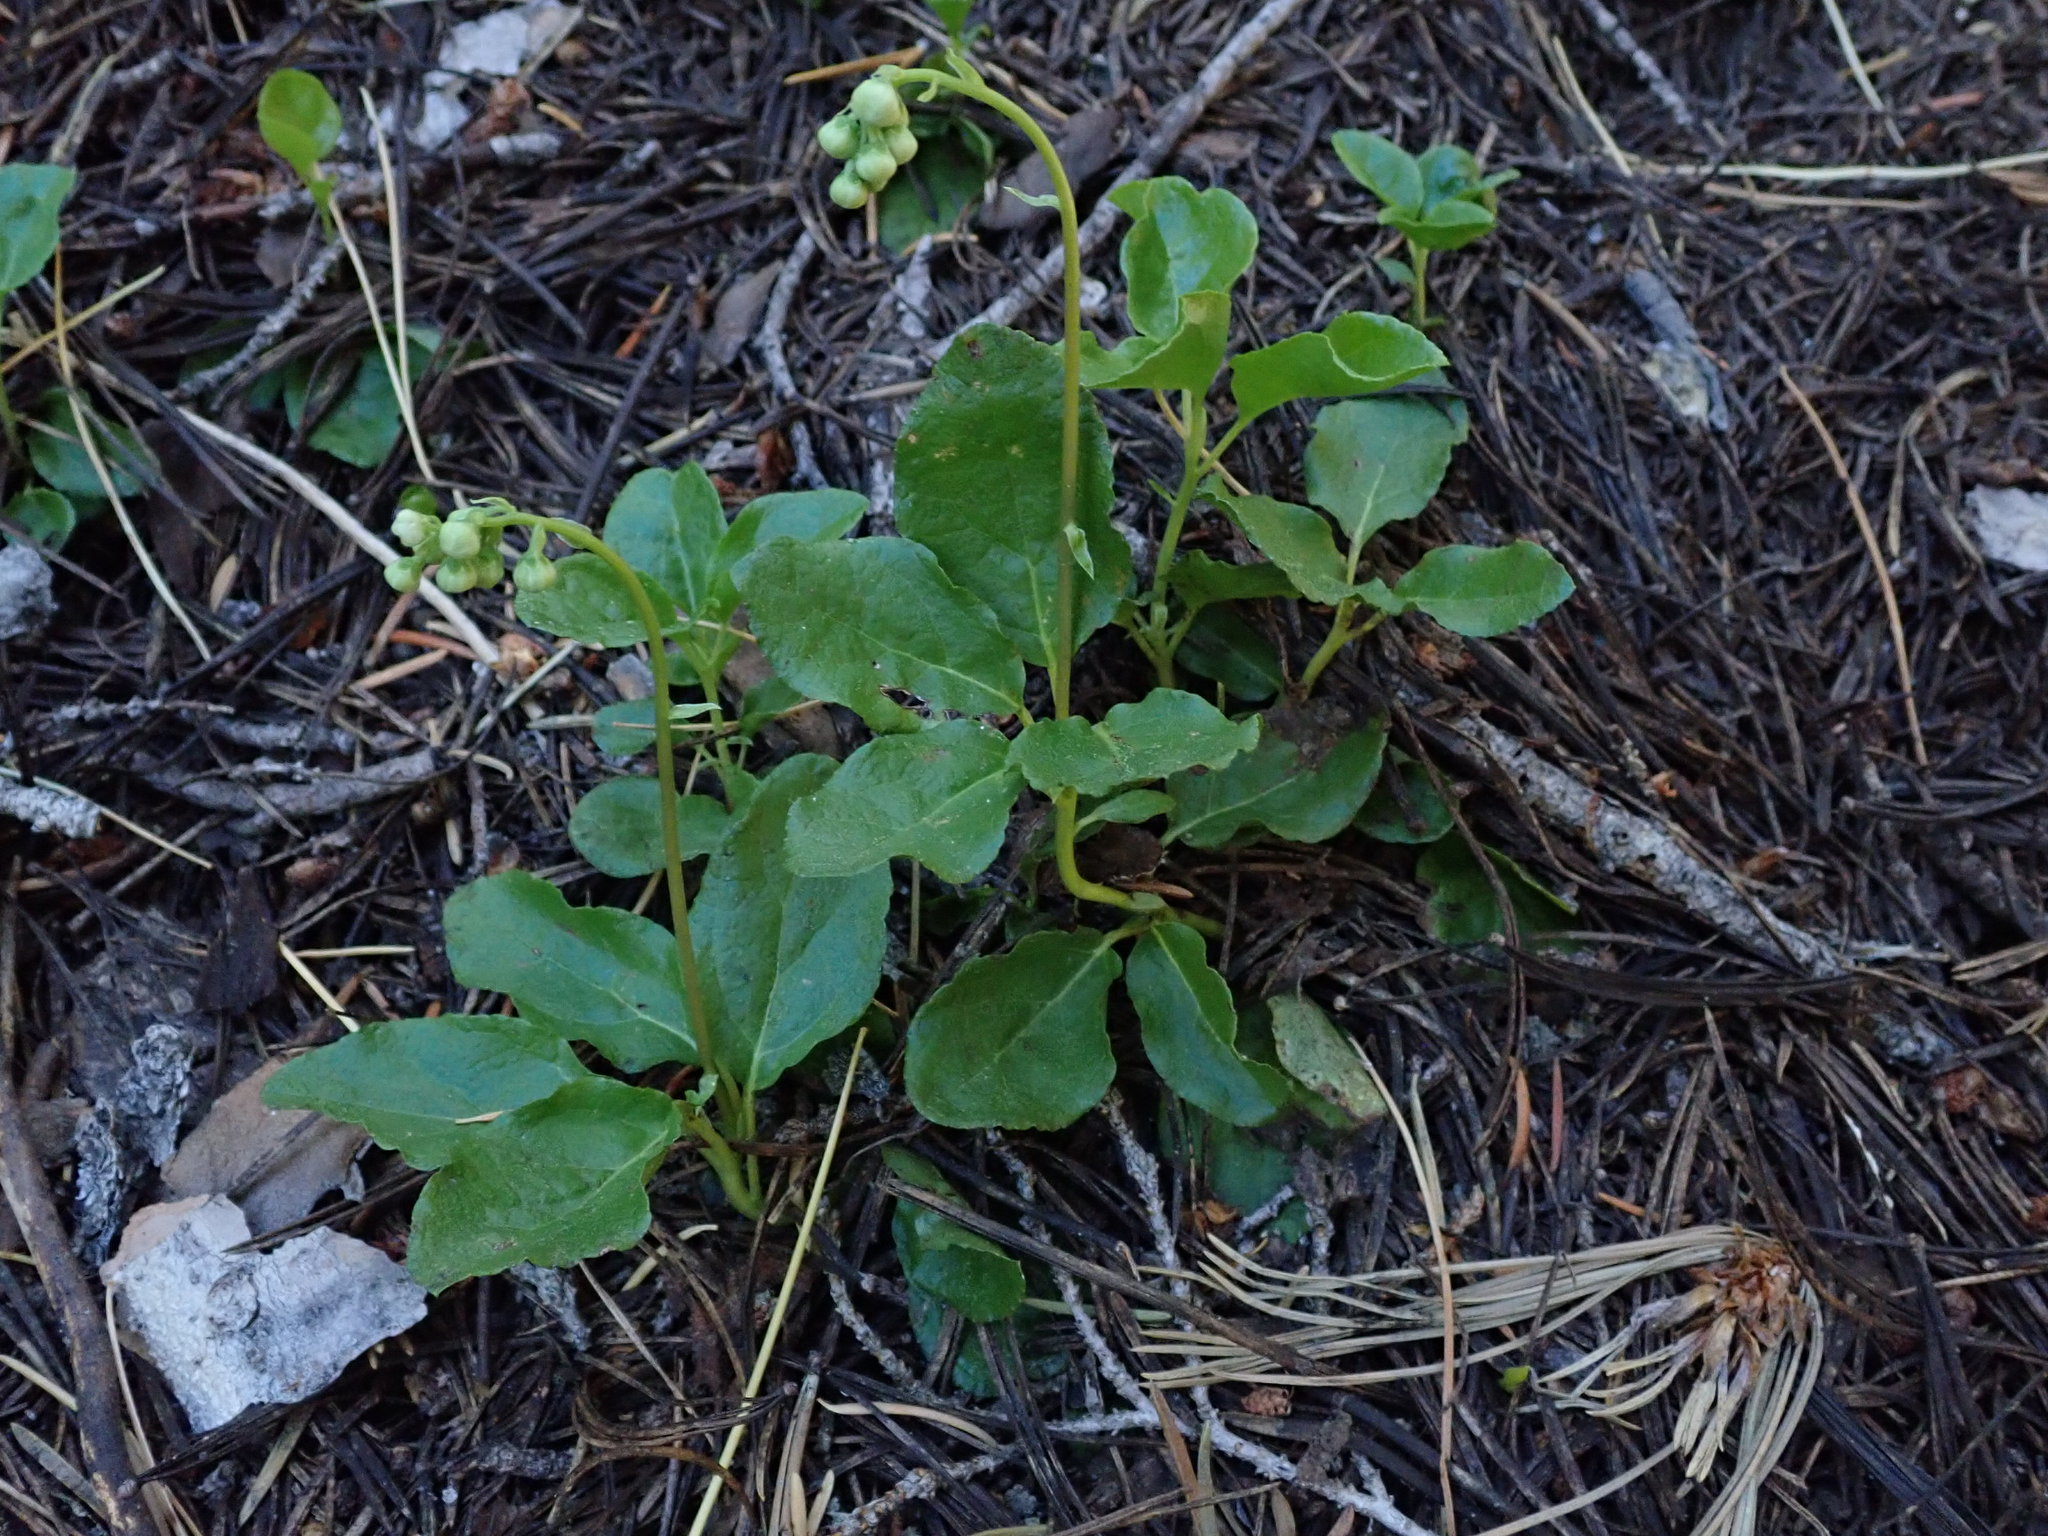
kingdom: Plantae
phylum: Tracheophyta
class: Magnoliopsida
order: Ericales
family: Ericaceae
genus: Orthilia
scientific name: Orthilia secunda
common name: One-sided orthilia
